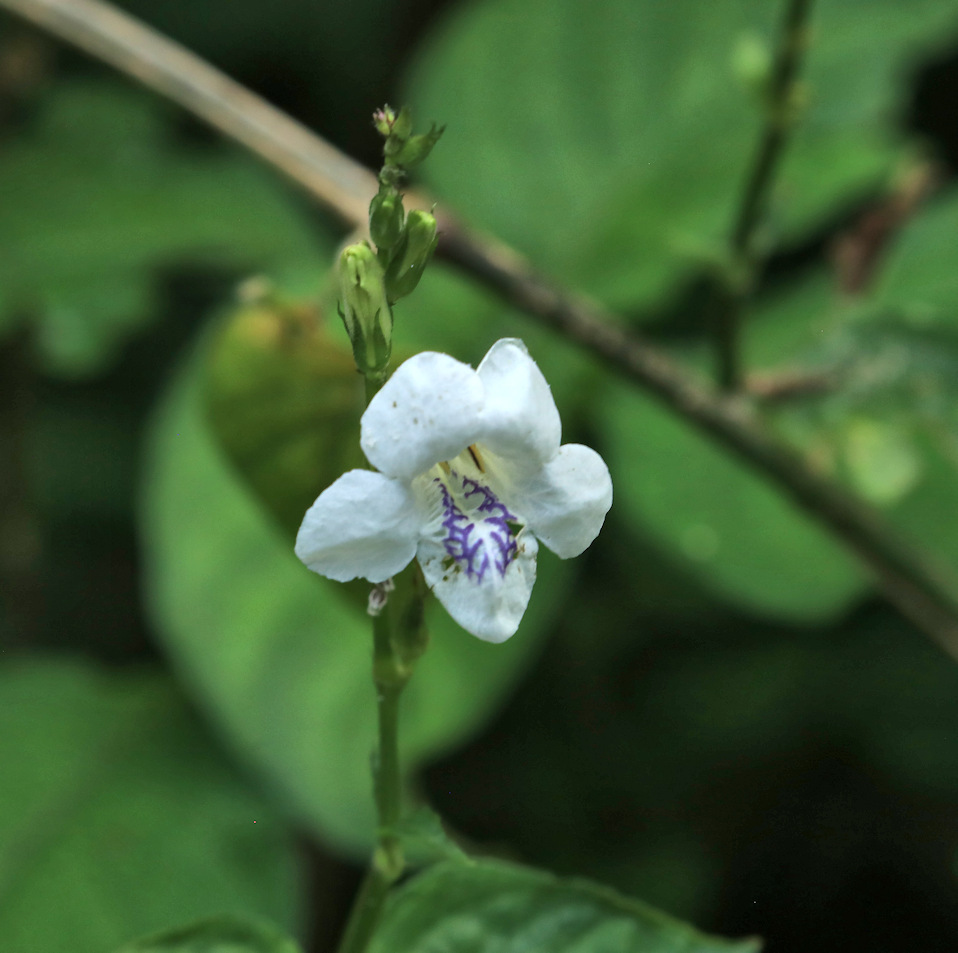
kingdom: Plantae
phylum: Tracheophyta
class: Magnoliopsida
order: Lamiales
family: Acanthaceae
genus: Asystasia
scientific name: Asystasia intrusa
